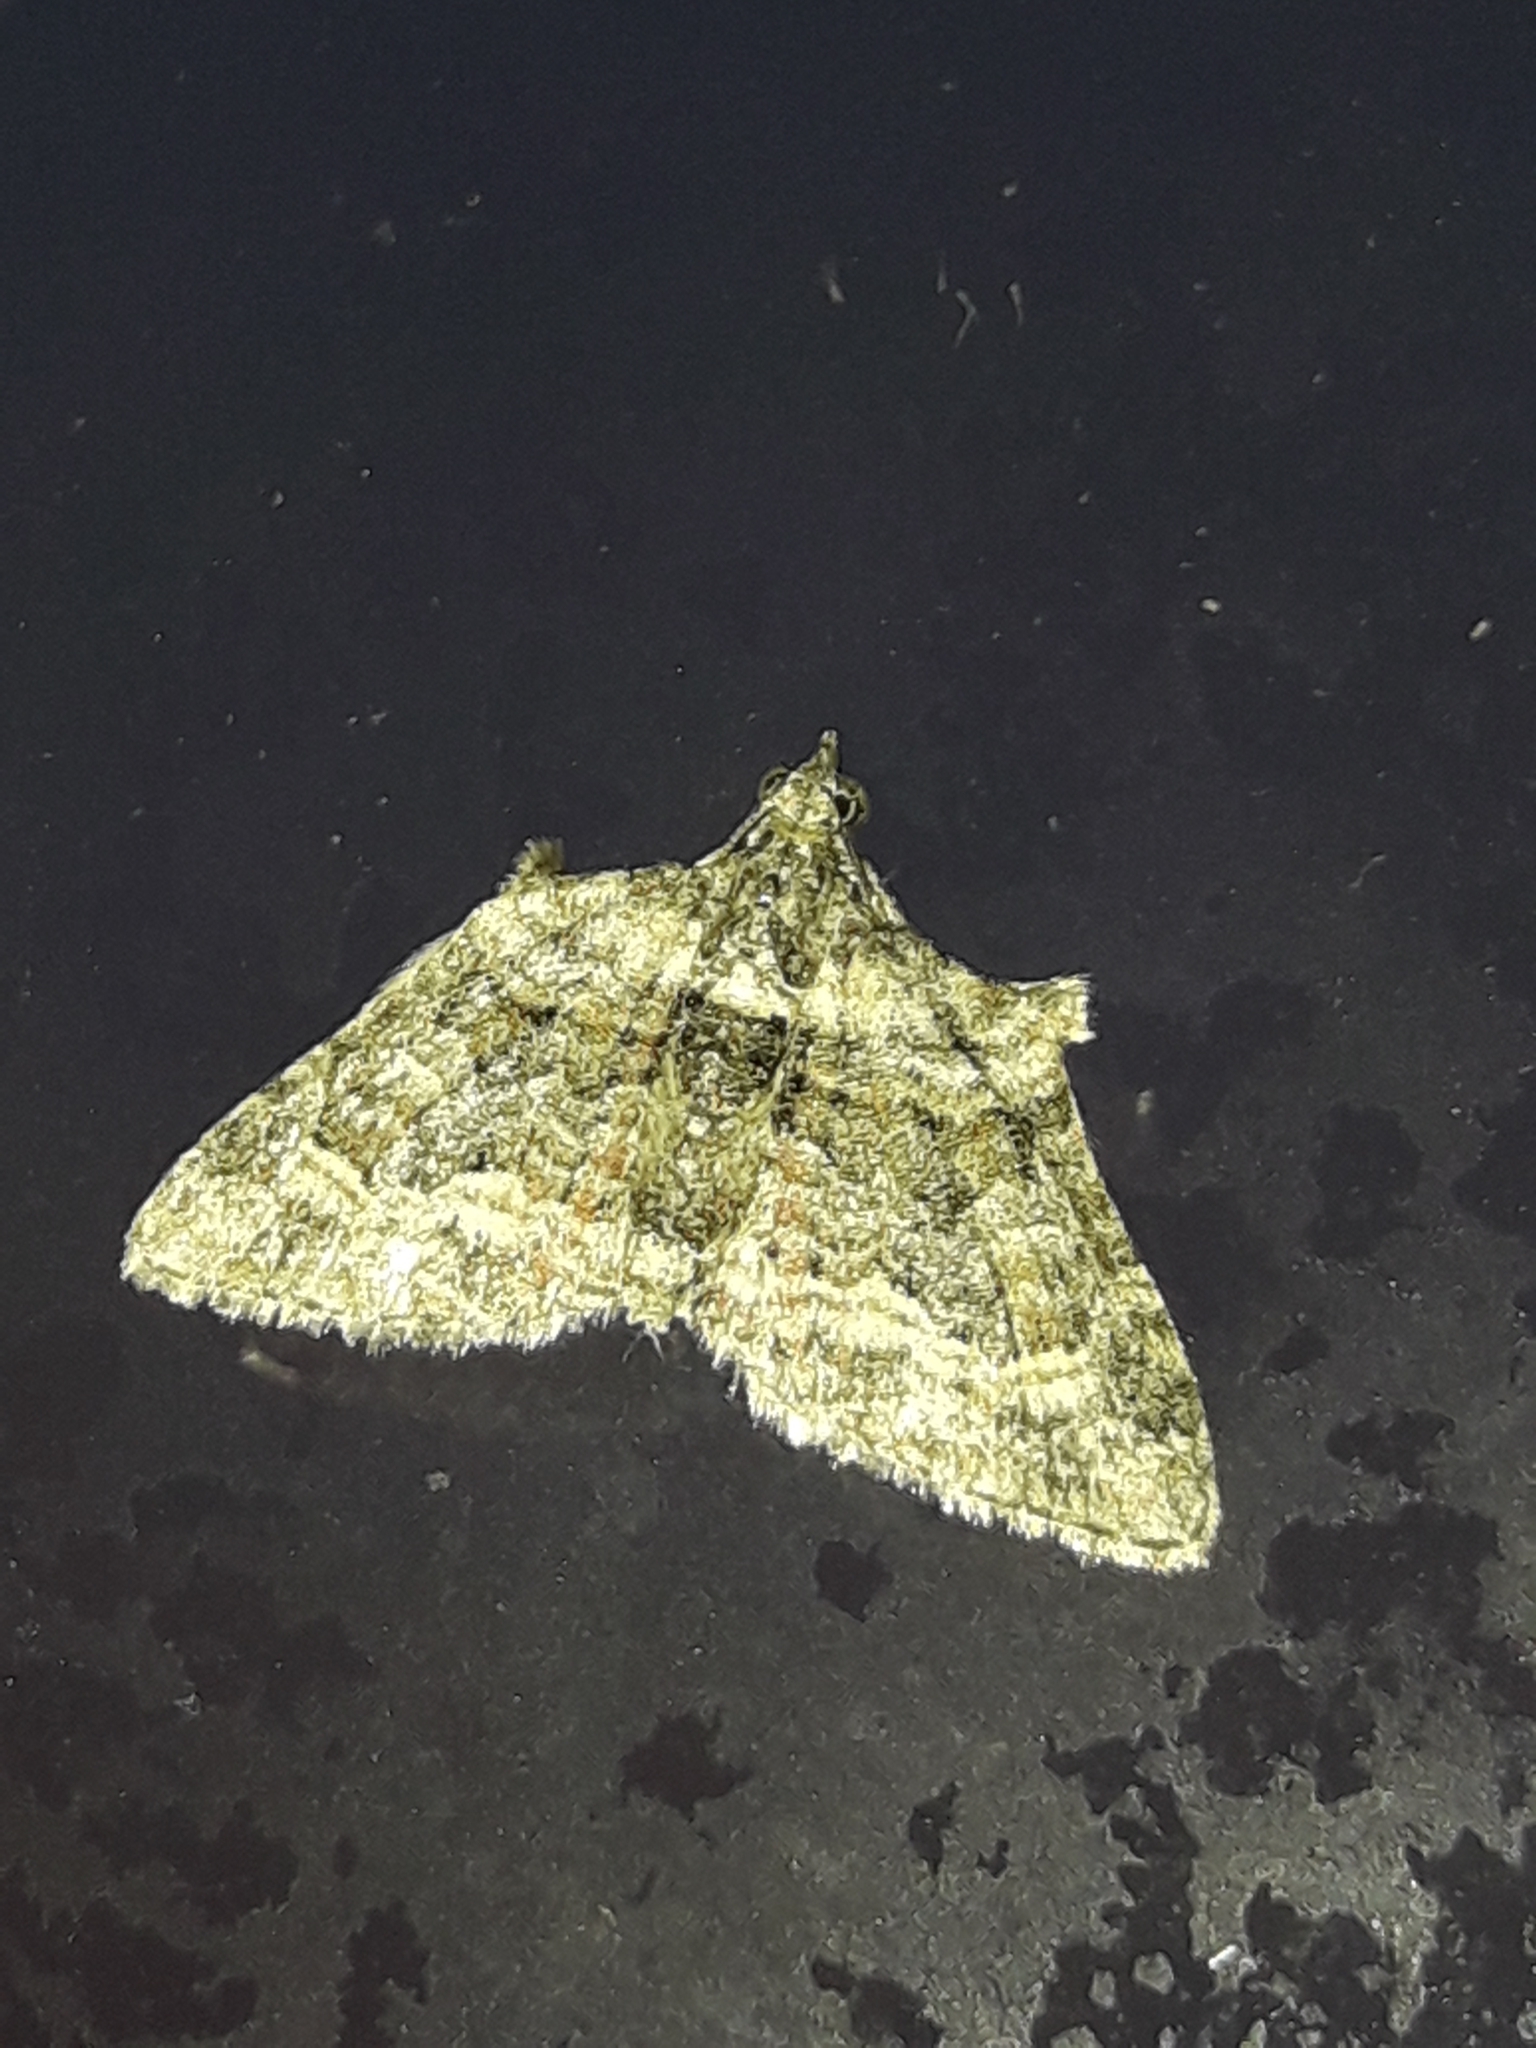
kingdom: Animalia
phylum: Arthropoda
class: Insecta
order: Lepidoptera
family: Geometridae
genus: Phrissogonus
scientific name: Phrissogonus laticostata
